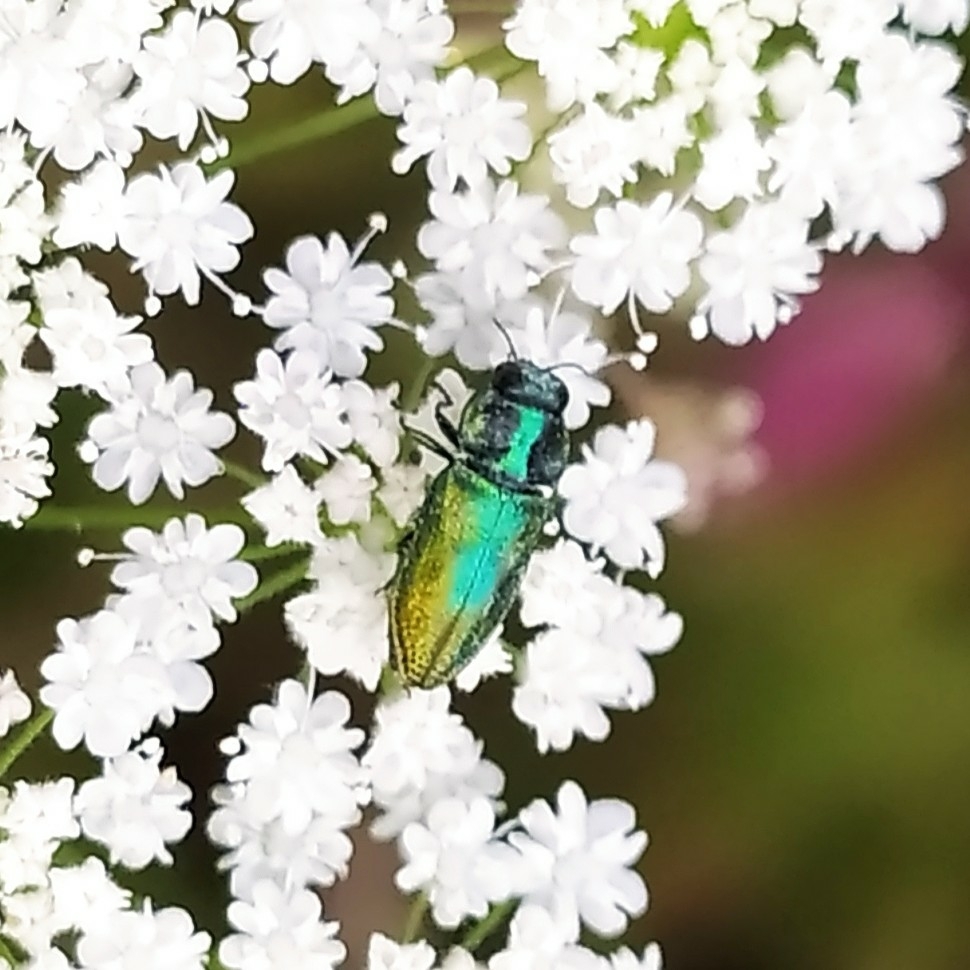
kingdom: Animalia
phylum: Arthropoda
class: Insecta
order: Coleoptera
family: Buprestidae
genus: Anthaxia
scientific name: Anthaxia fulgurans
